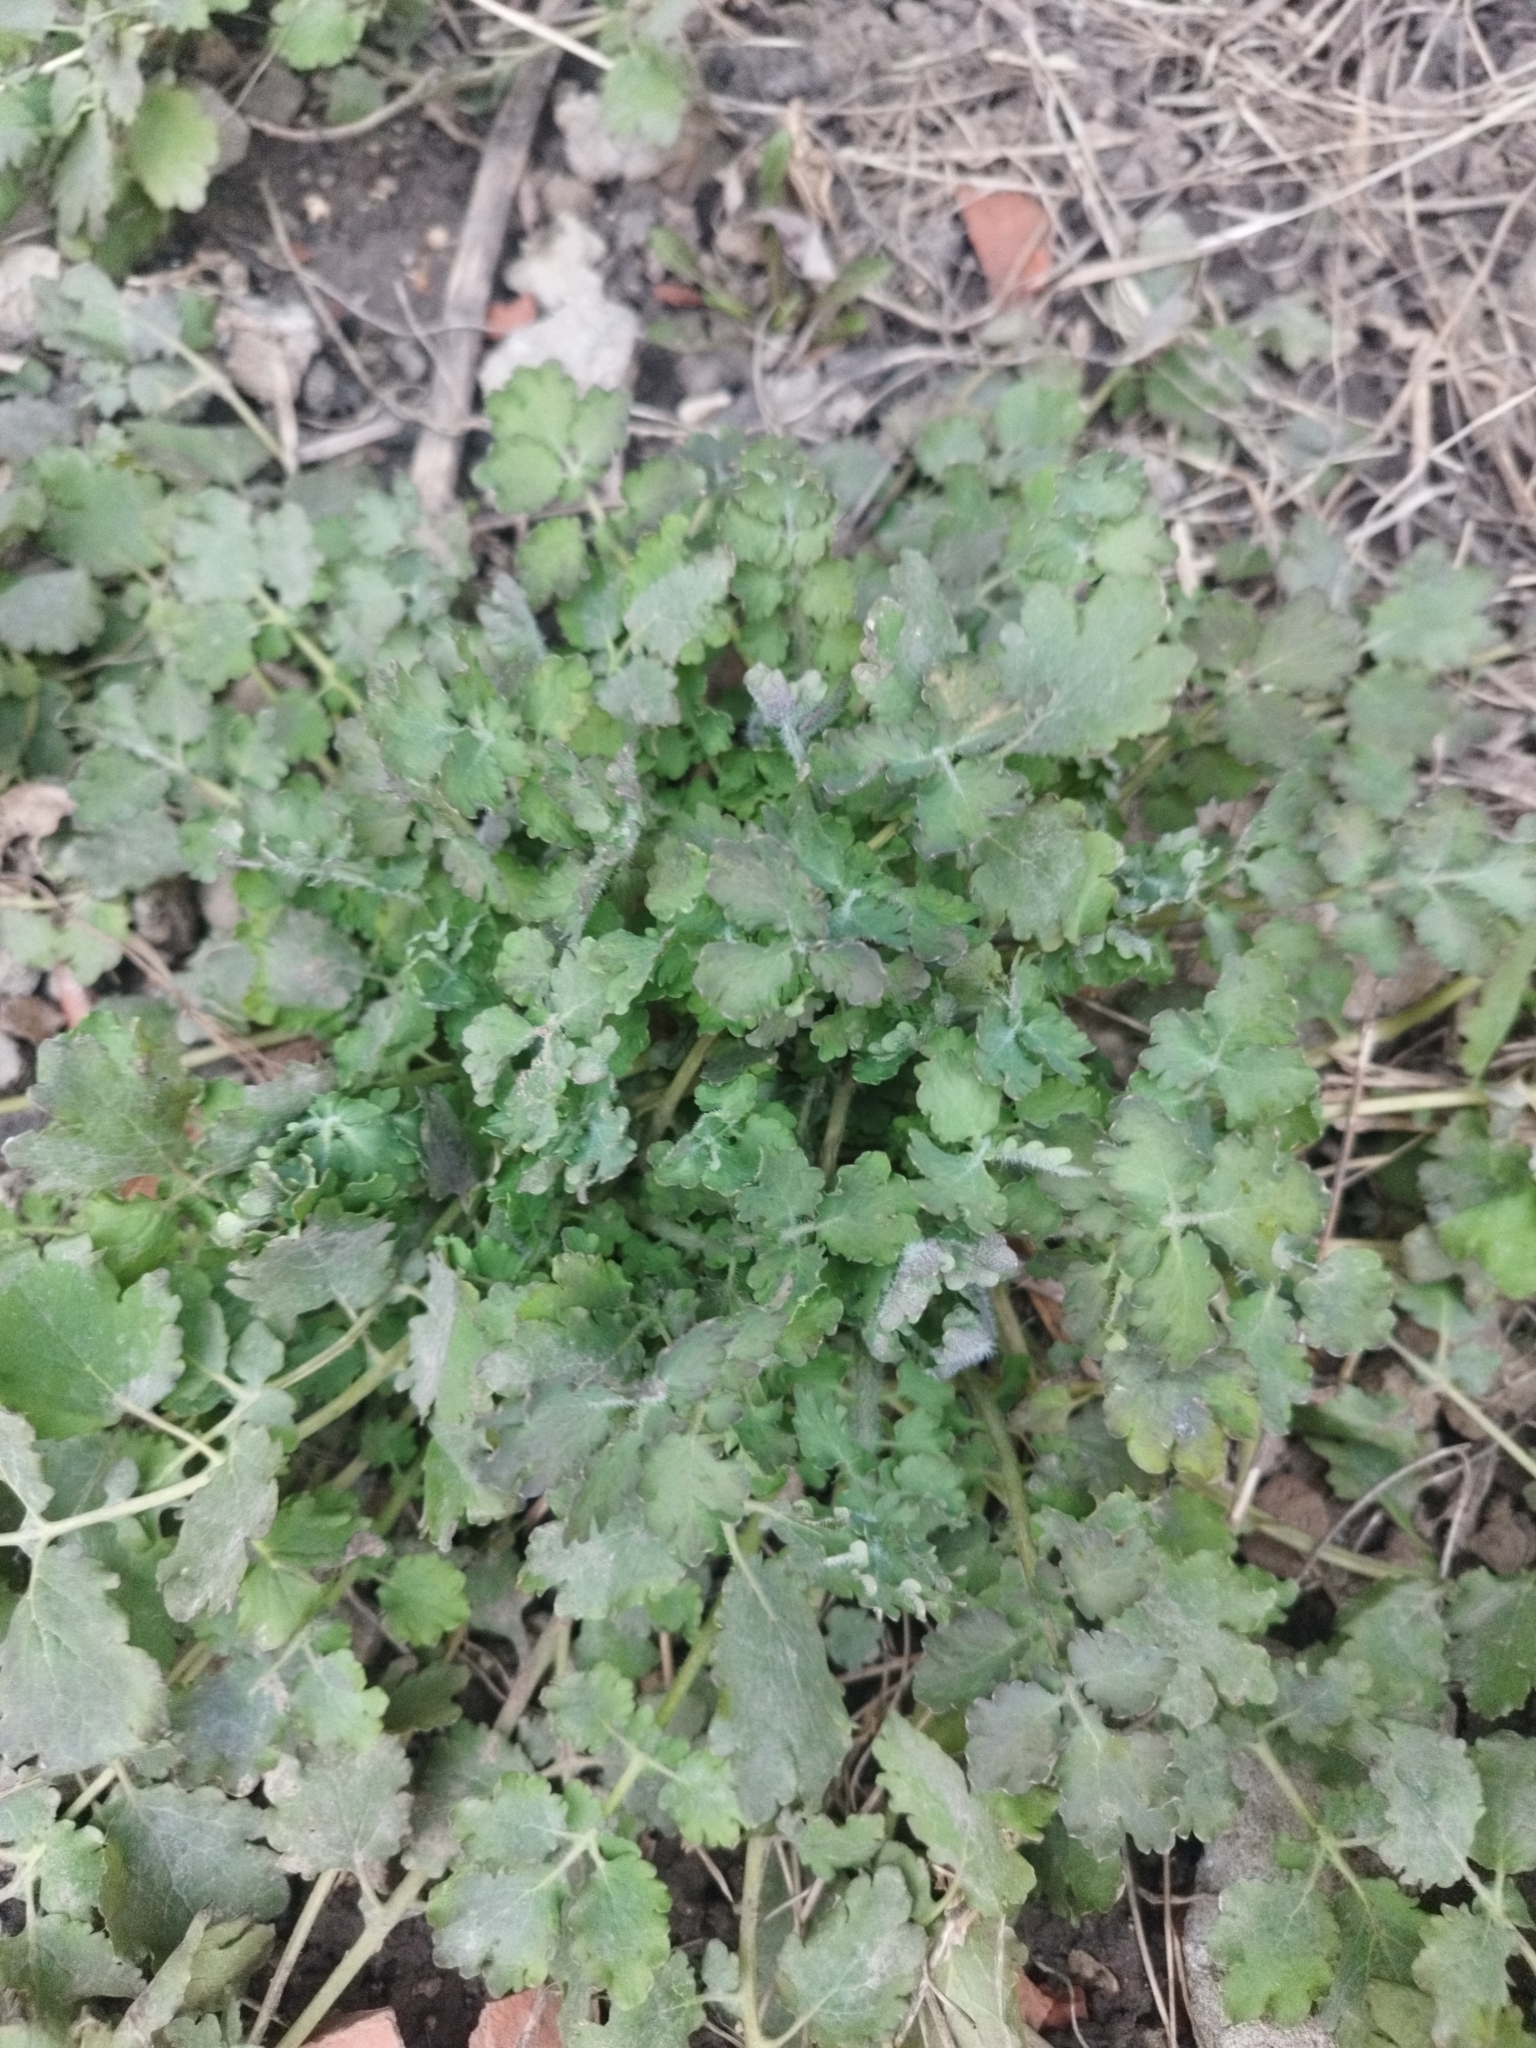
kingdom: Plantae
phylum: Tracheophyta
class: Magnoliopsida
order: Ranunculales
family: Papaveraceae
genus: Chelidonium
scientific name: Chelidonium majus
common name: Greater celandine
